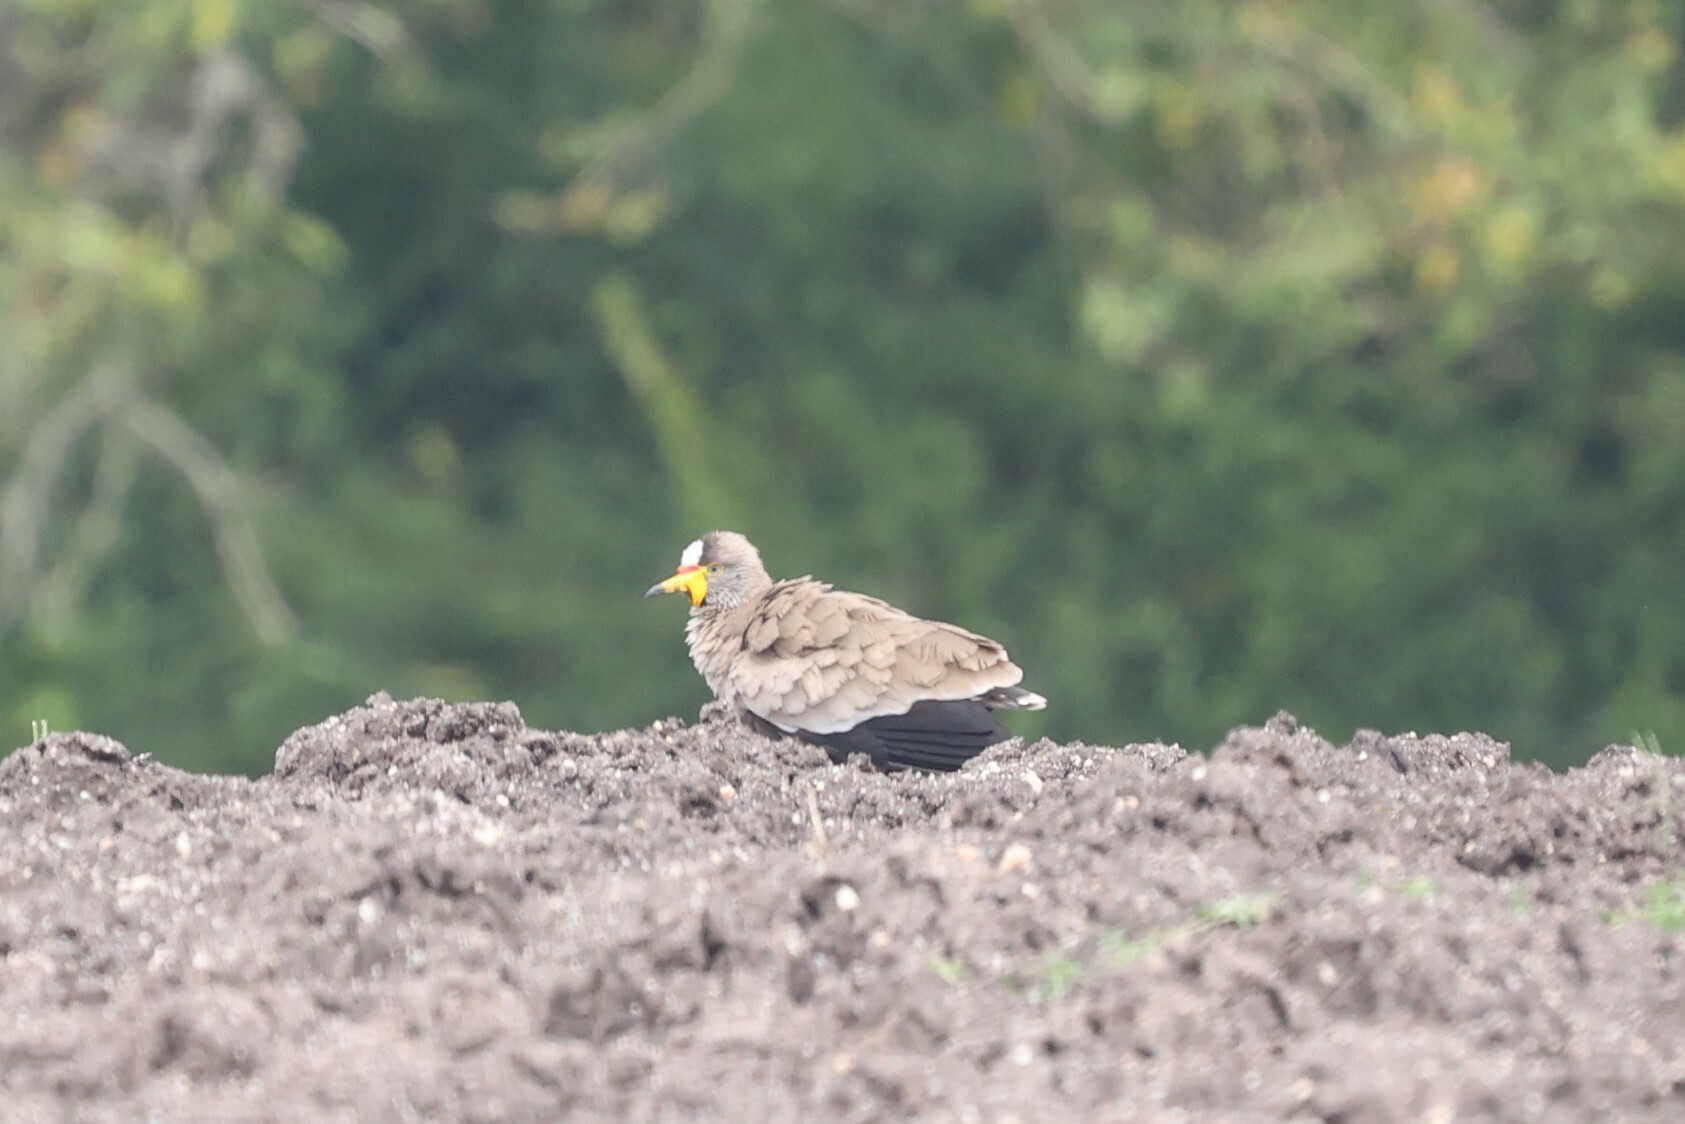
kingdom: Animalia
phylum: Chordata
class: Aves
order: Charadriiformes
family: Charadriidae
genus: Vanellus
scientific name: Vanellus senegallus
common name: African wattled lapwing
